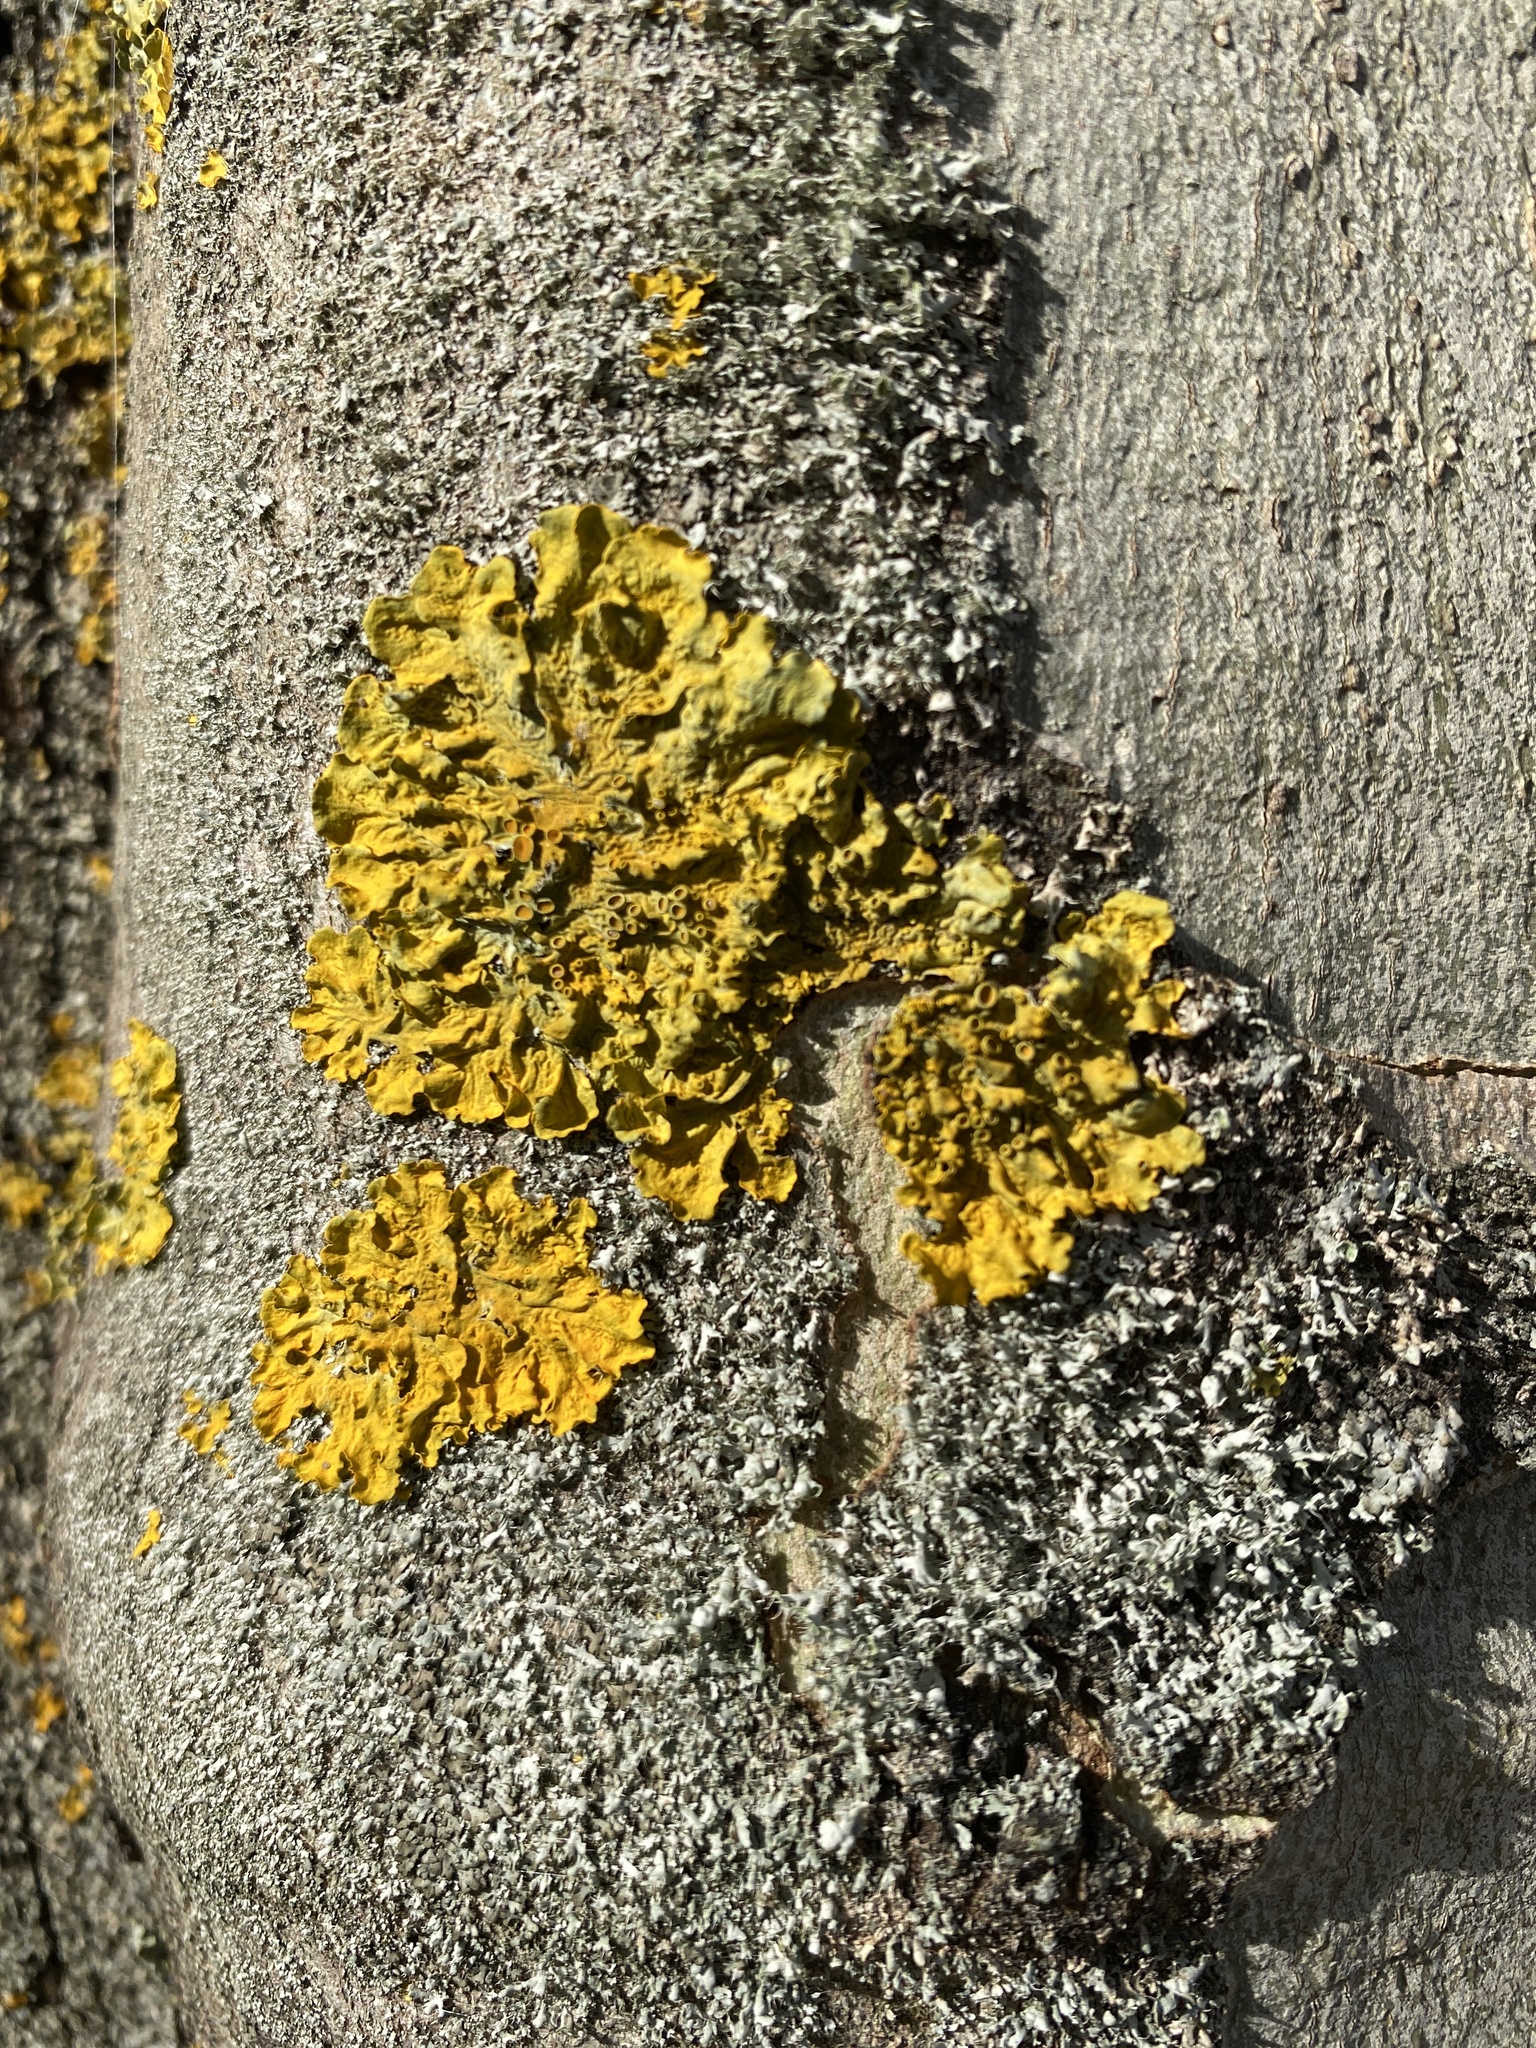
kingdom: Fungi
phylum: Ascomycota
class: Lecanoromycetes
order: Teloschistales
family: Teloschistaceae
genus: Xanthoria
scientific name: Xanthoria parietina
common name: Common orange lichen
